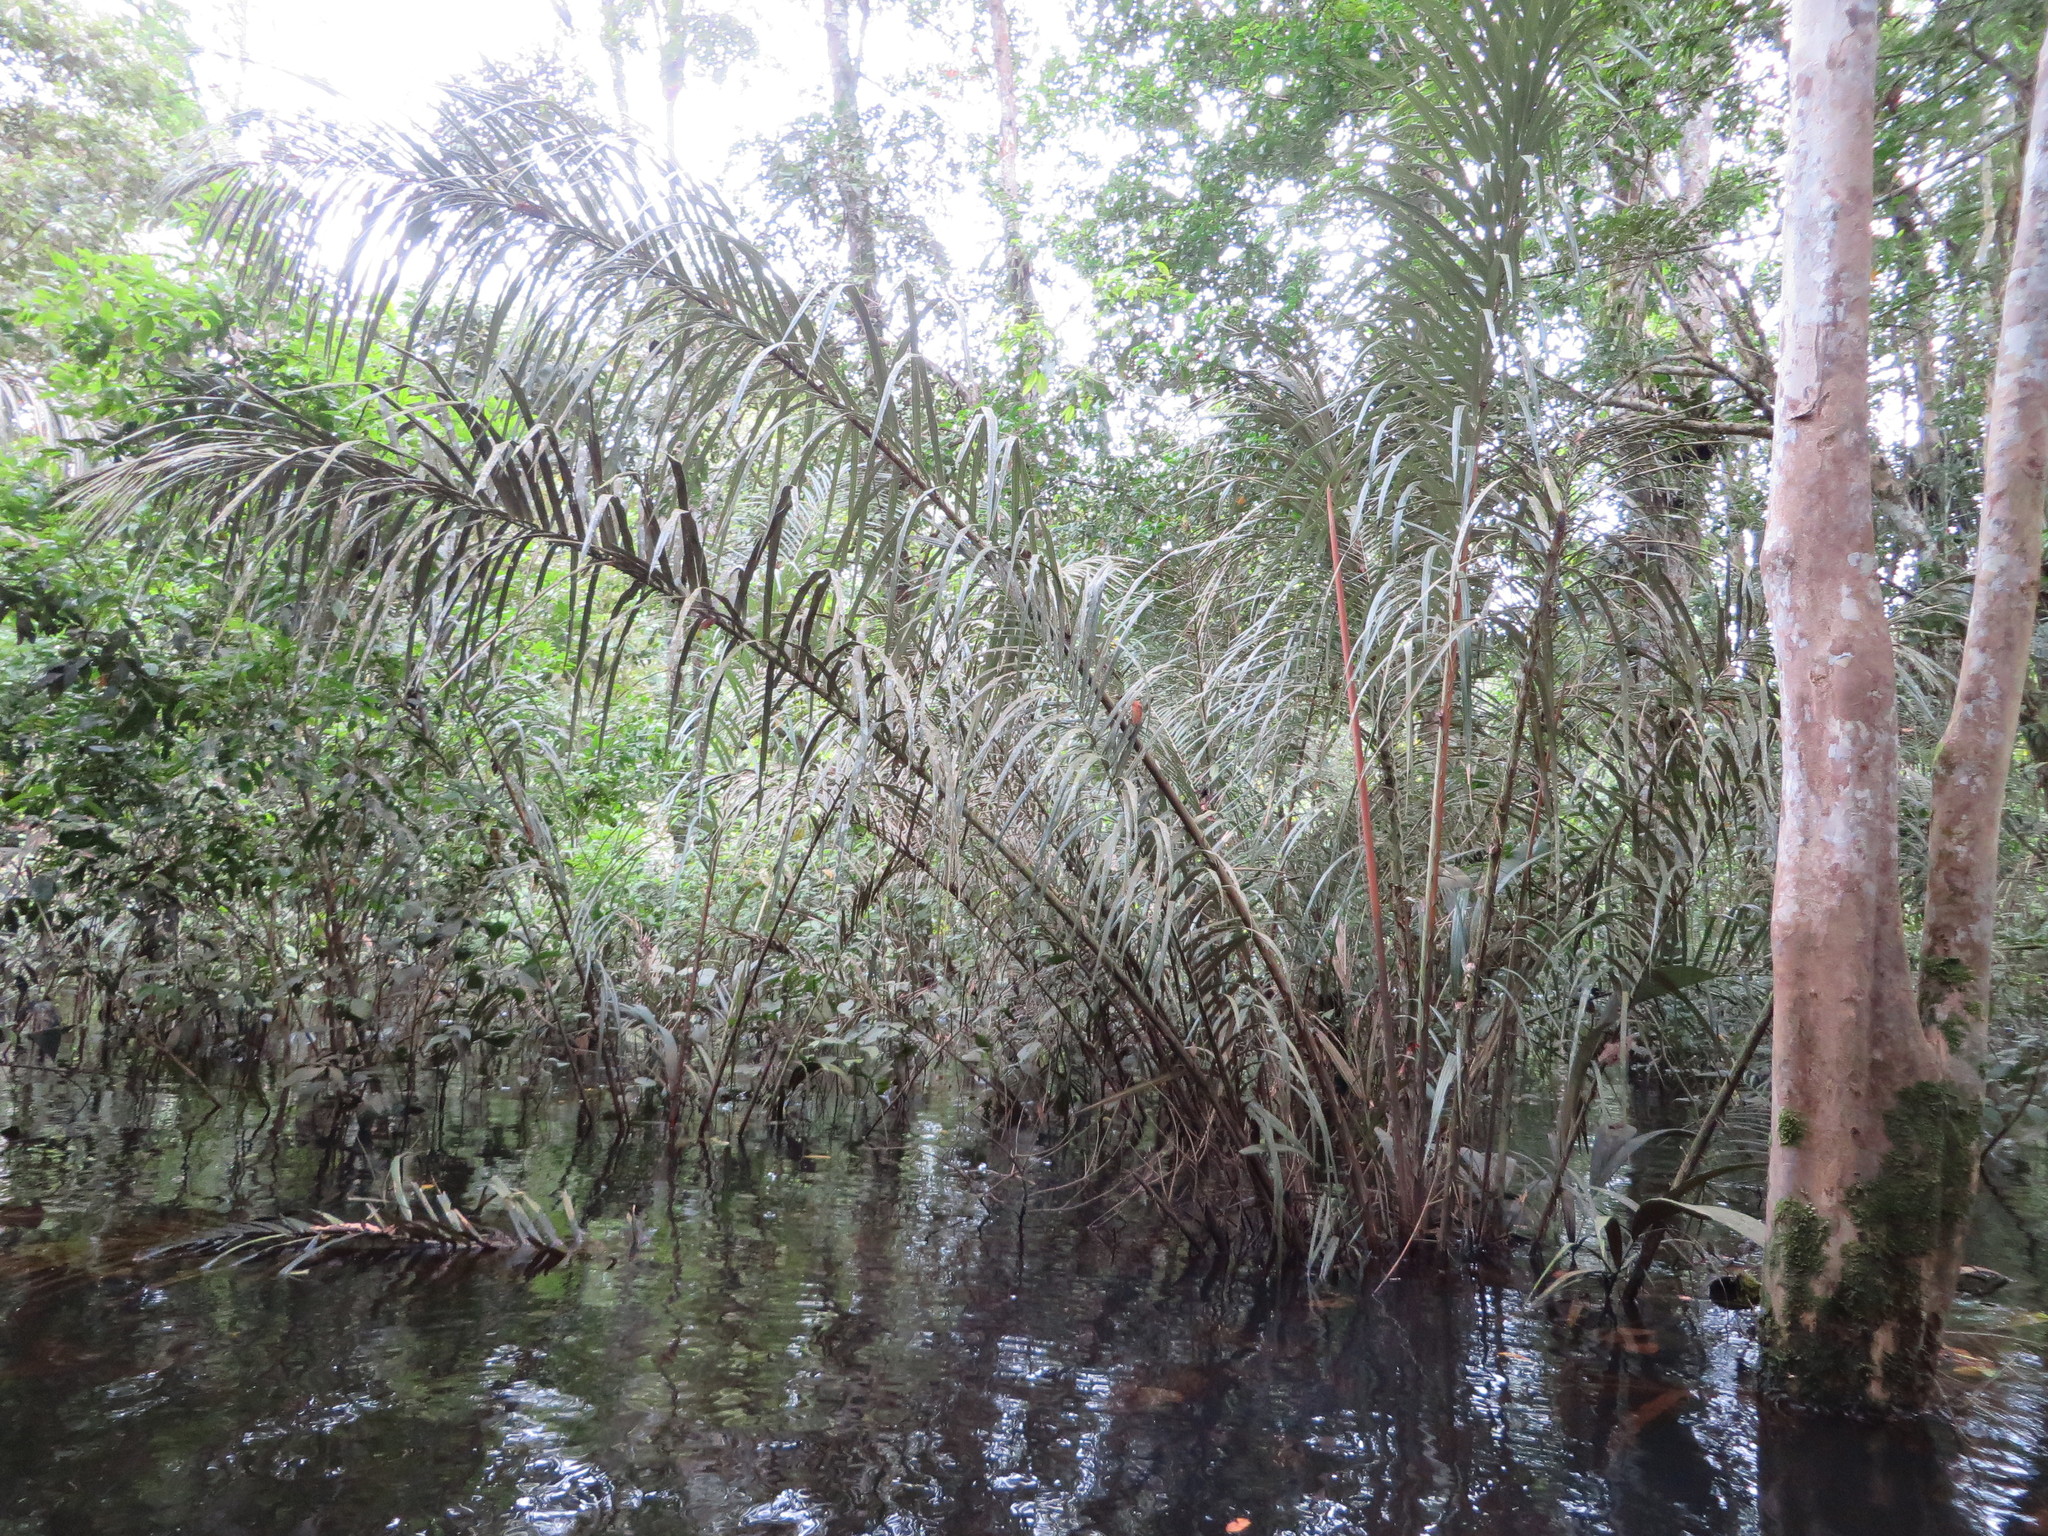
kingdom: Plantae
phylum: Tracheophyta
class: Liliopsida
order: Arecales
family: Arecaceae
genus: Astrocaryum
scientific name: Astrocaryum murumuru
